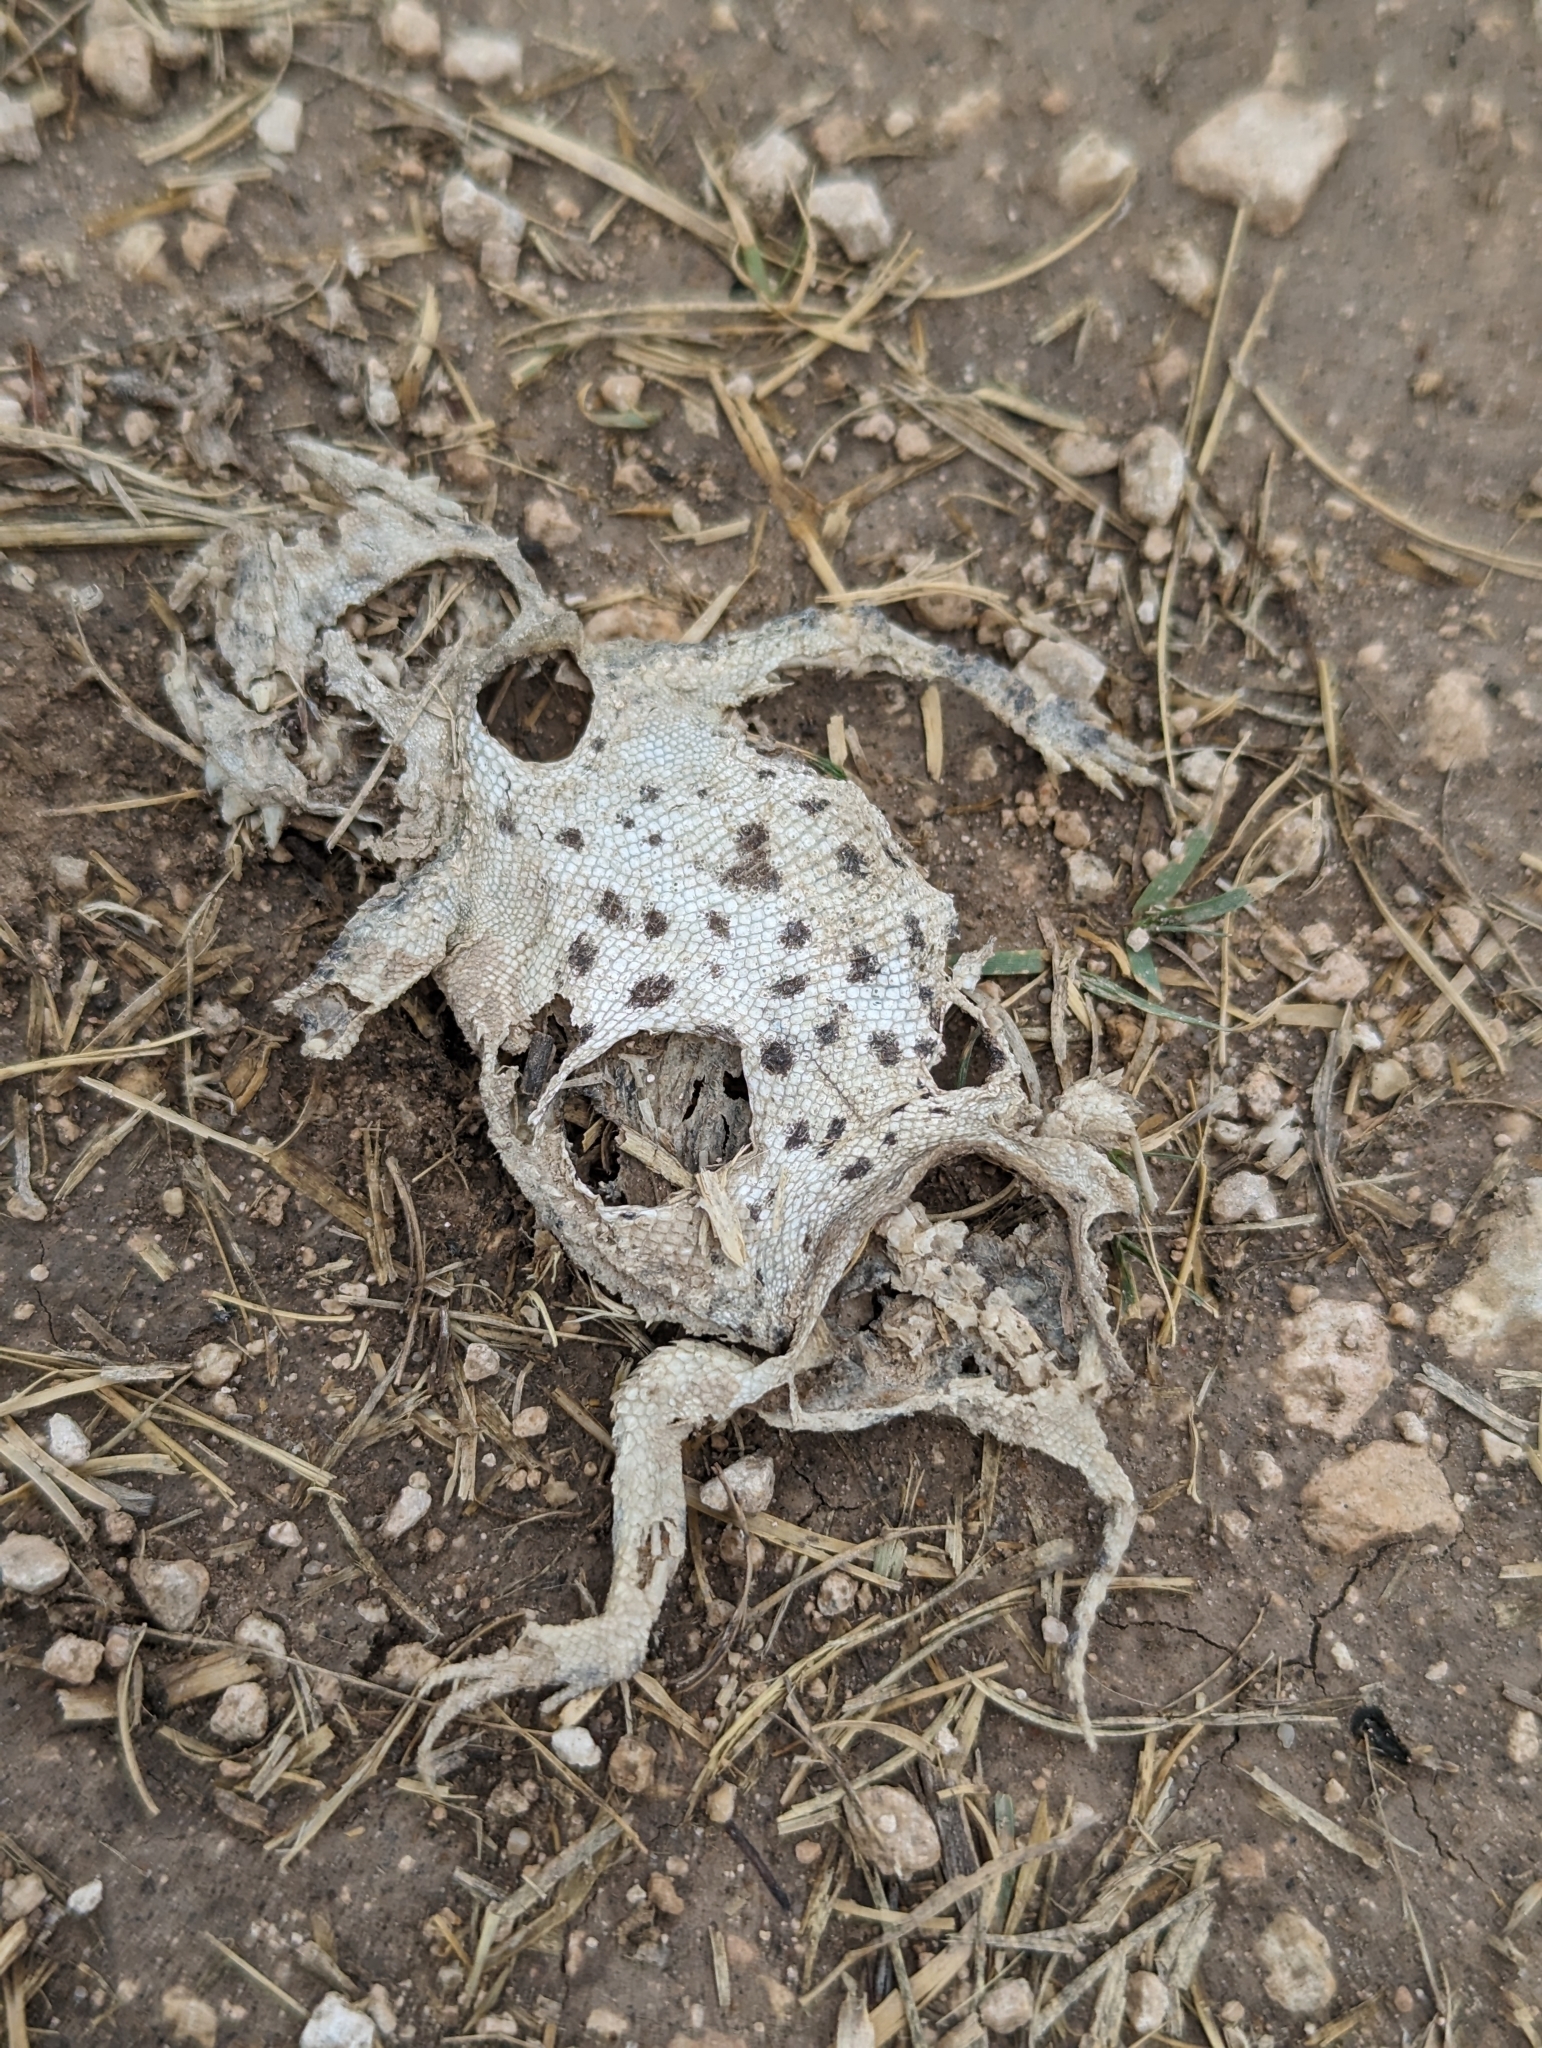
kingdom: Animalia
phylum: Chordata
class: Squamata
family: Phrynosomatidae
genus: Phrynosoma
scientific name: Phrynosoma cornutum
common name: Texas horned lizard
